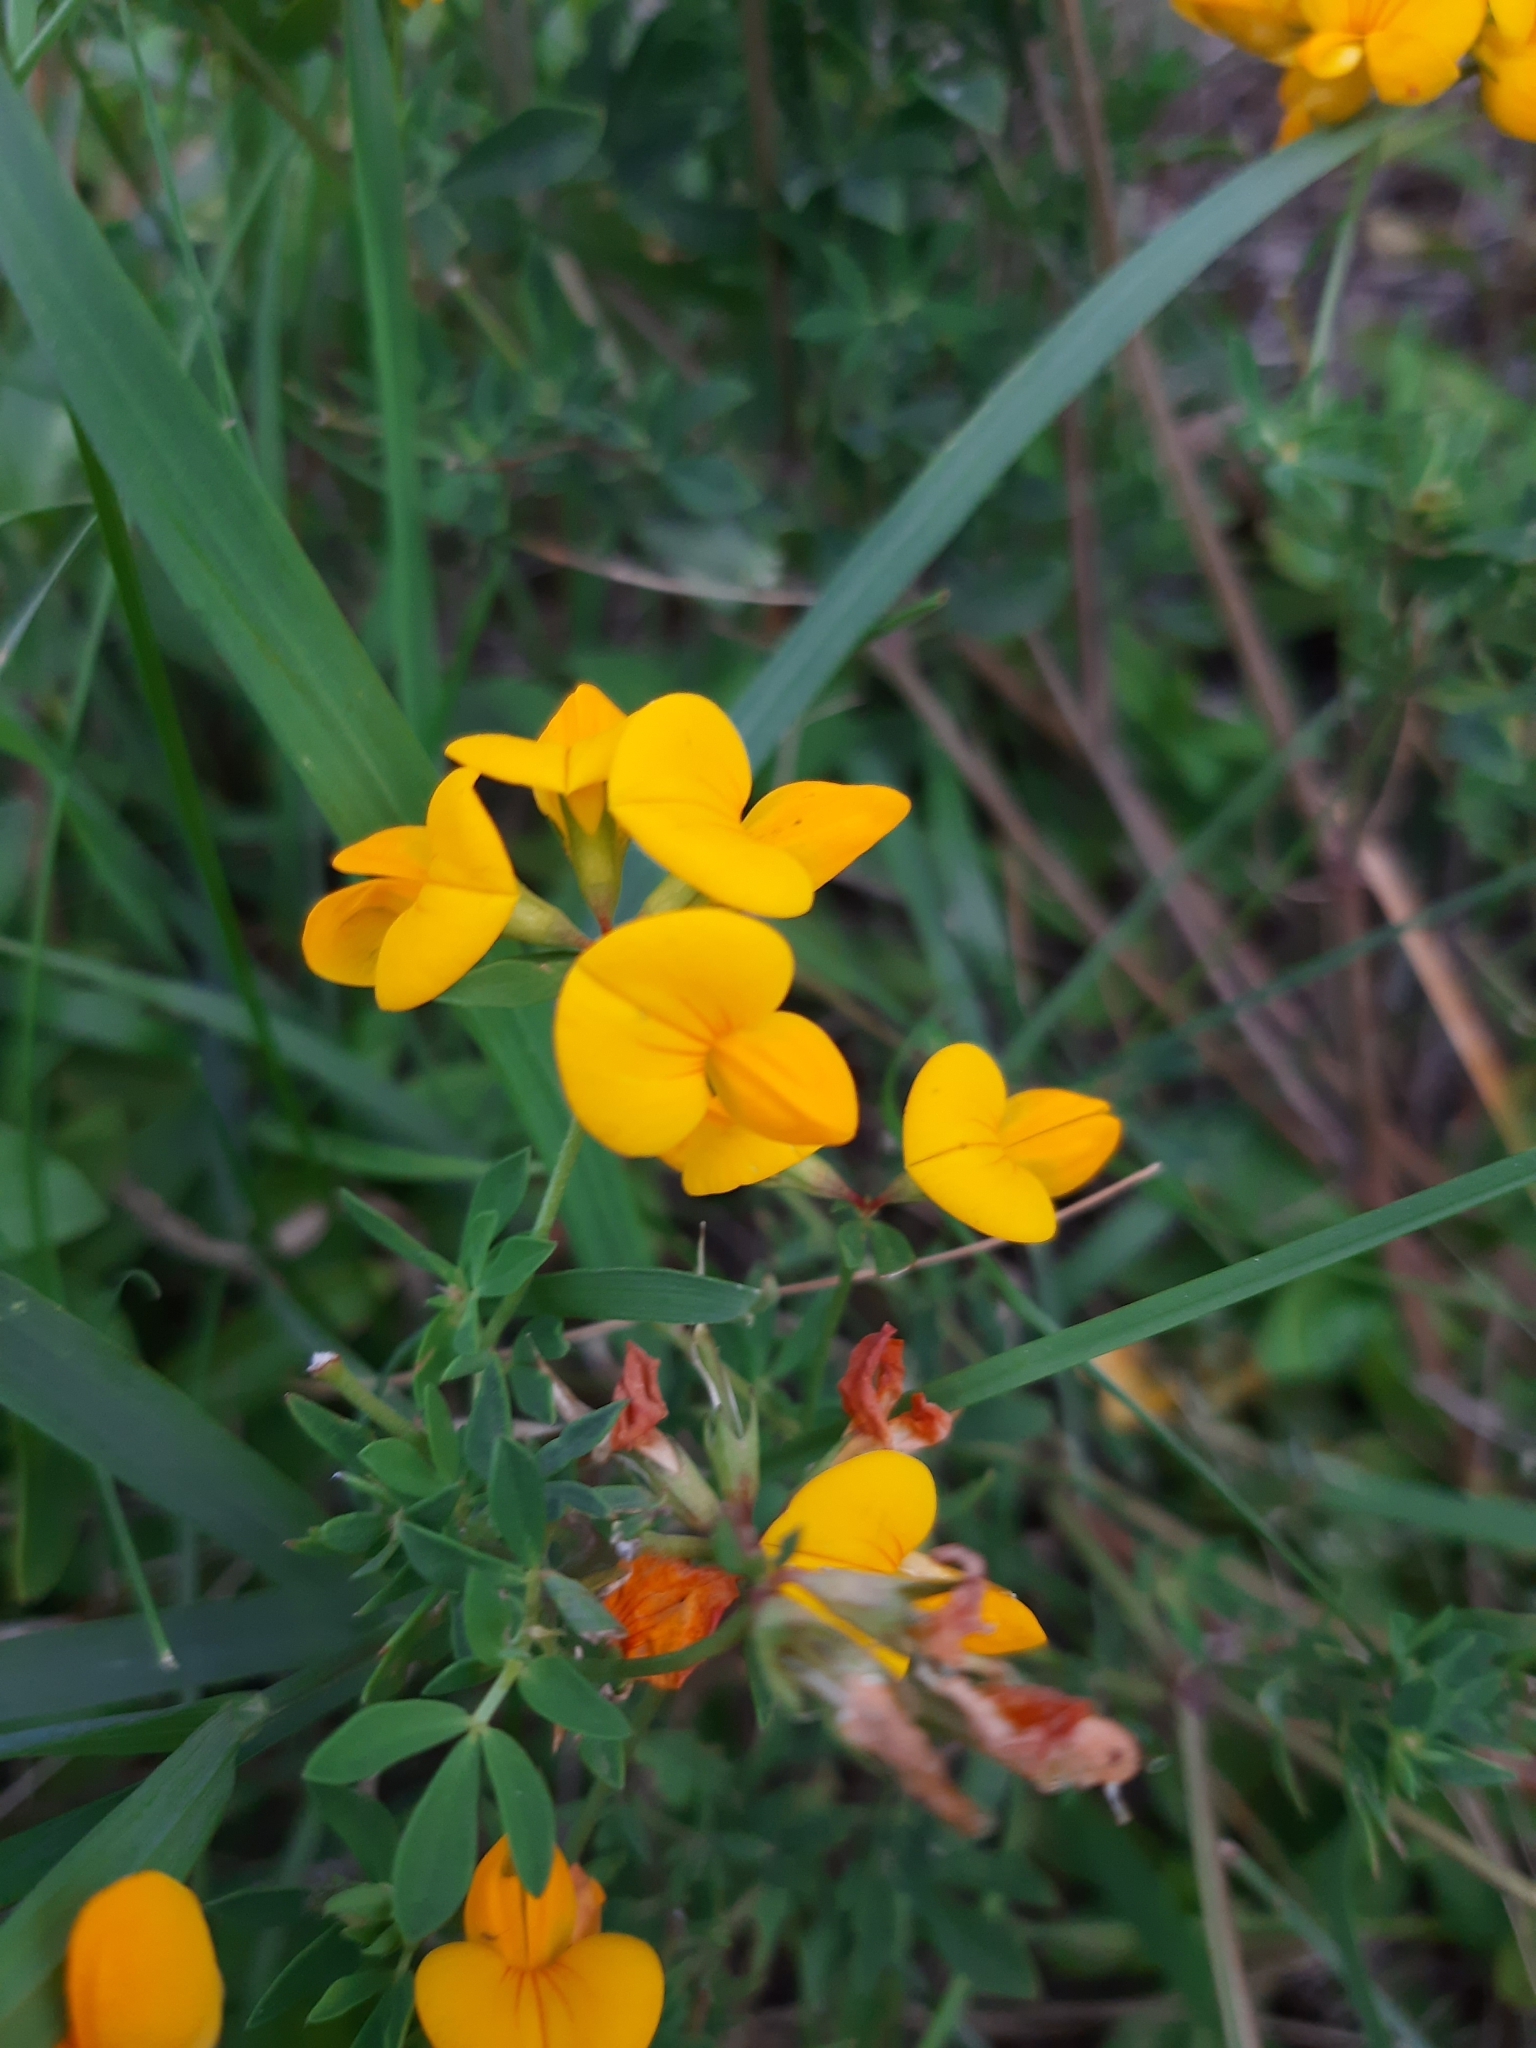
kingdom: Plantae
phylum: Tracheophyta
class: Magnoliopsida
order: Fabales
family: Fabaceae
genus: Lotus
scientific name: Lotus corniculatus
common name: Common bird's-foot-trefoil
